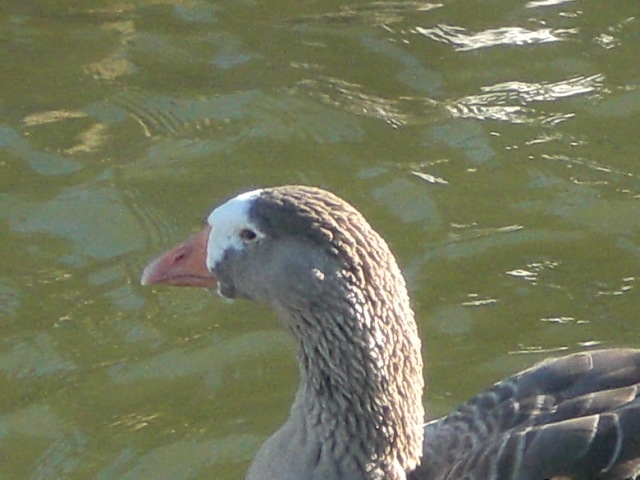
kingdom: Animalia
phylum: Chordata
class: Aves
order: Anseriformes
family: Anatidae
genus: Anser
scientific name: Anser anser
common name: Greylag goose
